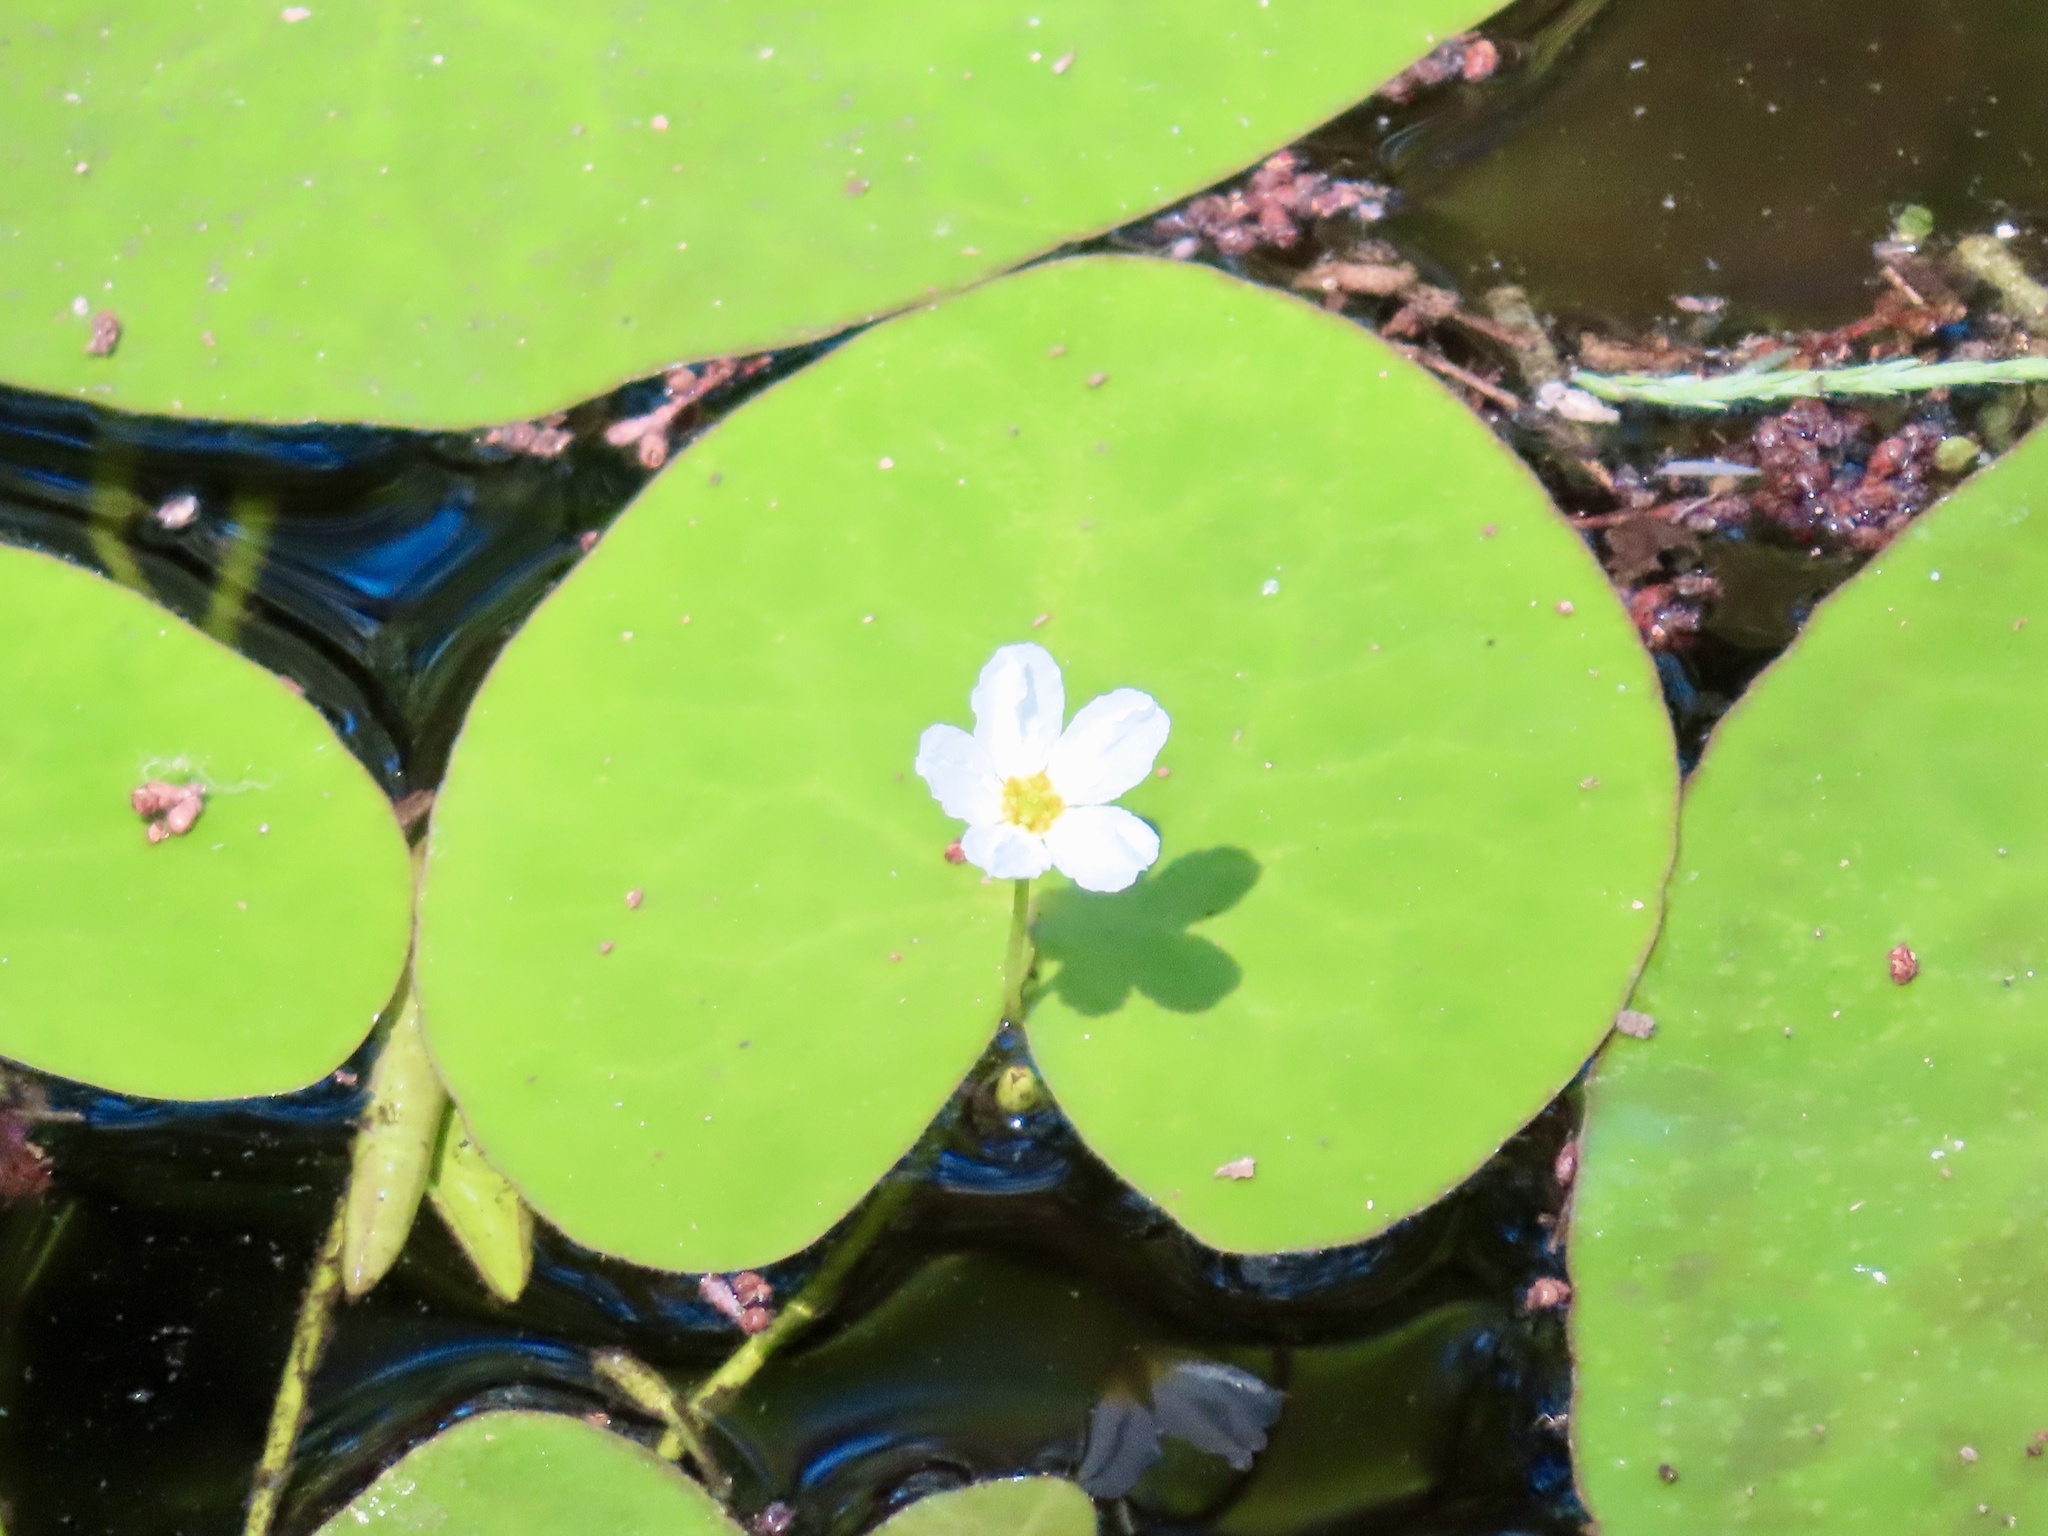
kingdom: Plantae
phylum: Tracheophyta
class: Magnoliopsida
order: Asterales
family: Menyanthaceae
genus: Nymphoides
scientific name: Nymphoides aquatica
